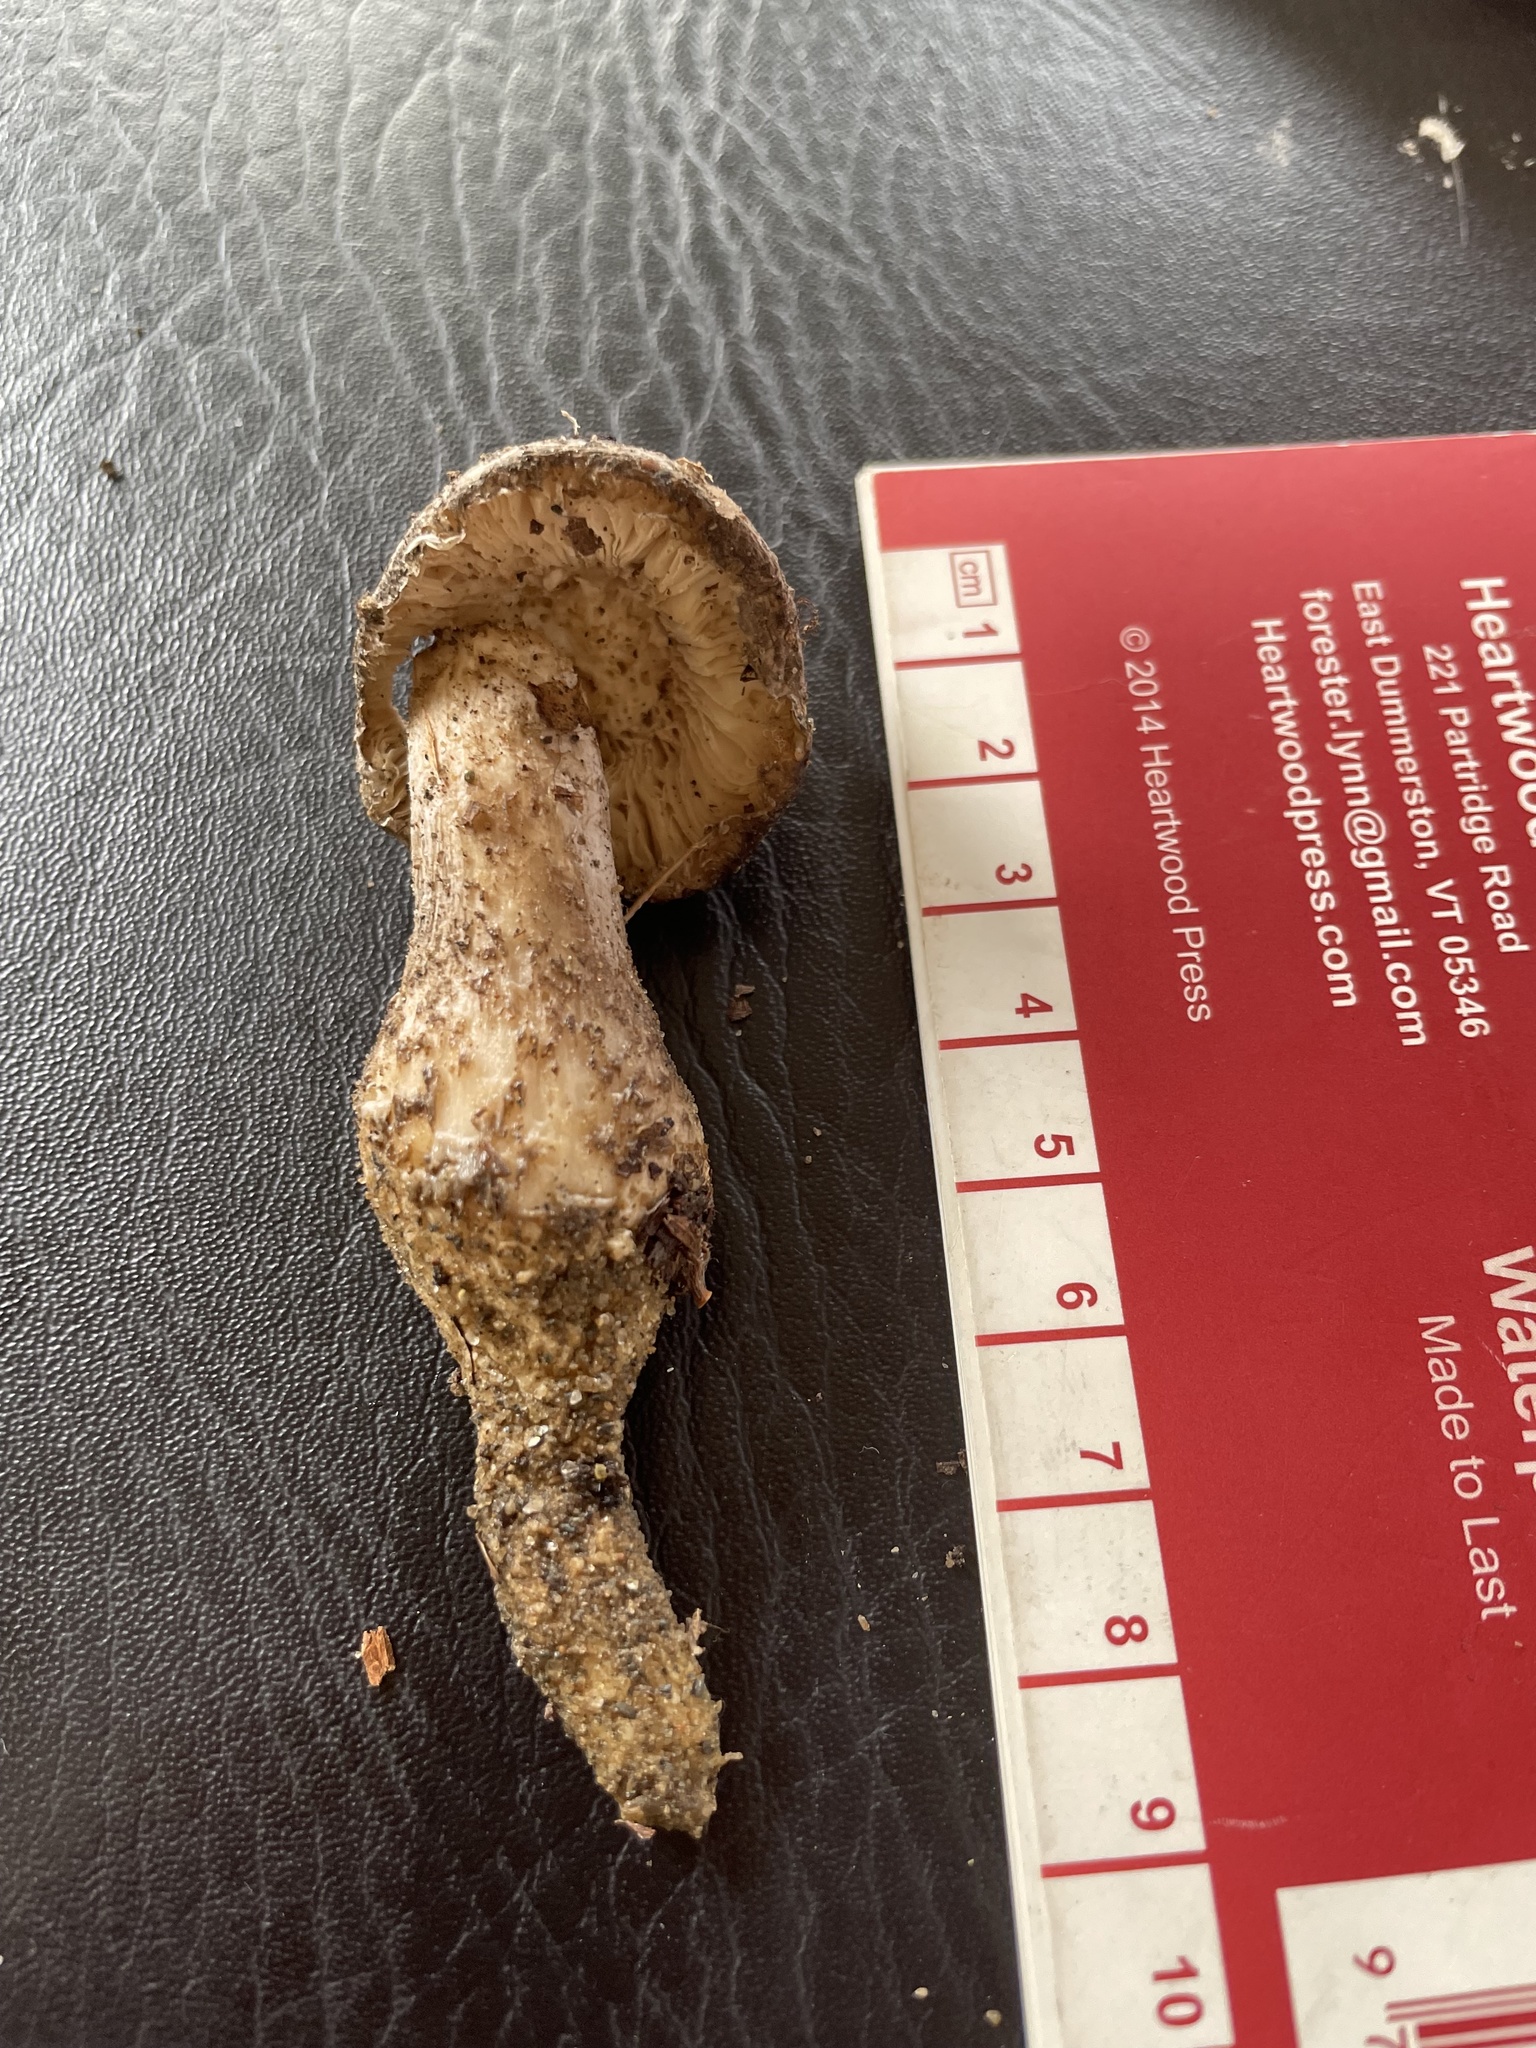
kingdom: Fungi
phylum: Basidiomycota
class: Agaricomycetes
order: Agaricales
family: Amanitaceae
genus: Amanita
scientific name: Amanita onusta
